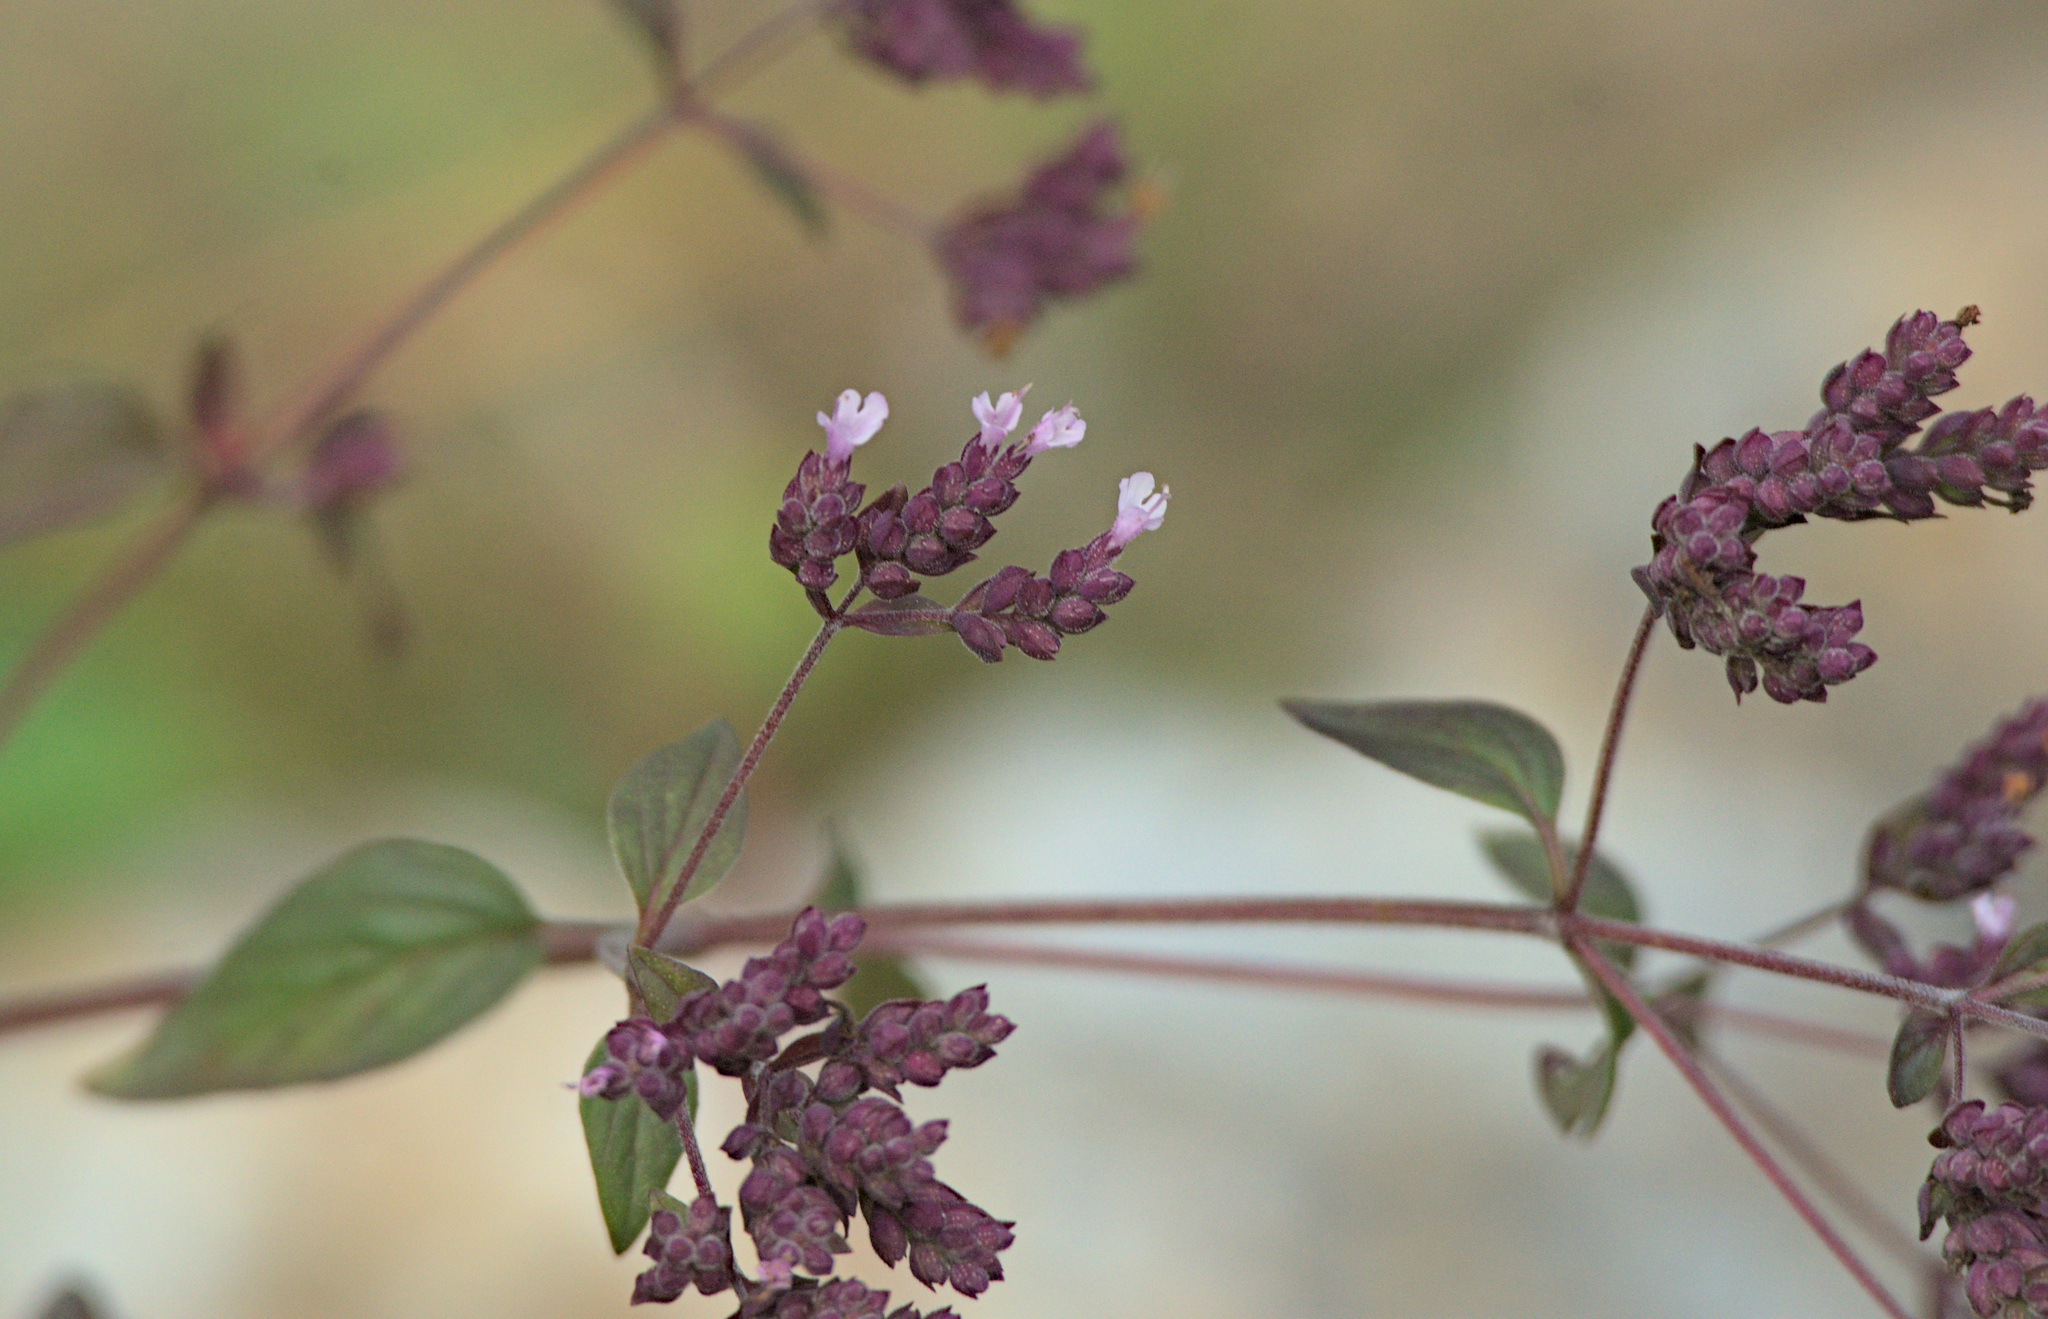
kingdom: Plantae
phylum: Tracheophyta
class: Magnoliopsida
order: Lamiales
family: Lamiaceae
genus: Origanum
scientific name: Origanum vulgare
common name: Wild marjoram
